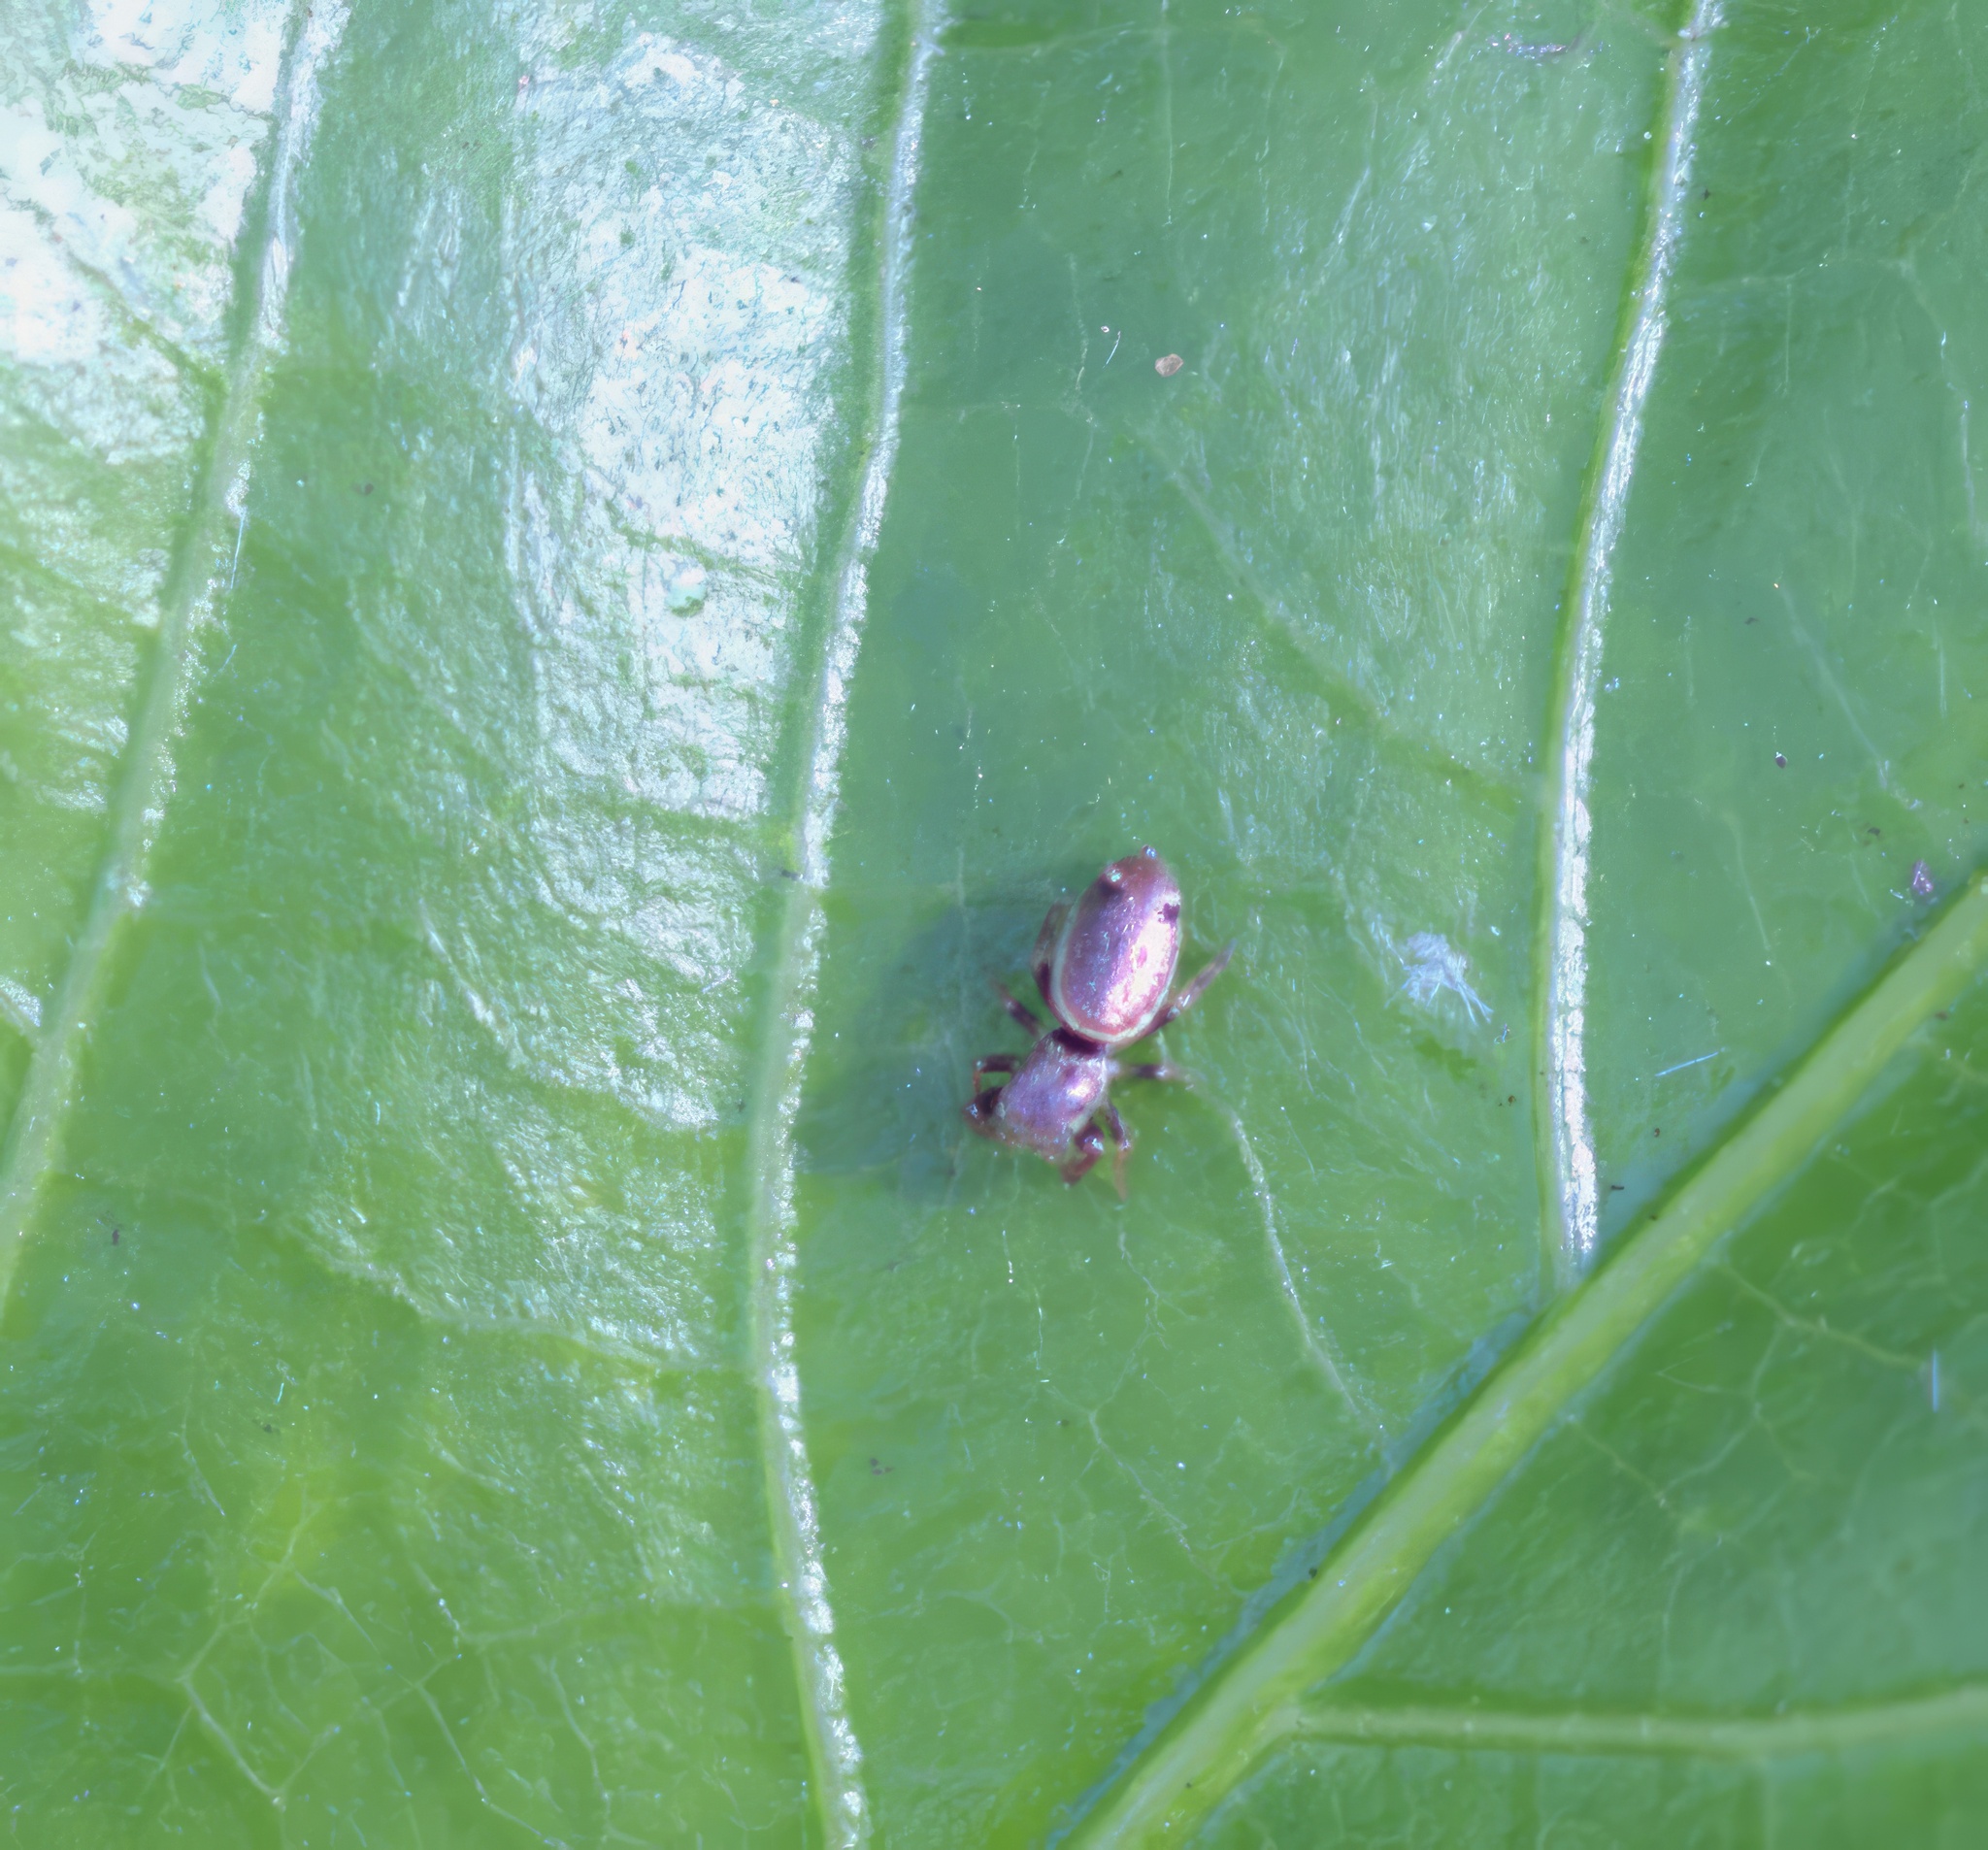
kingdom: Animalia
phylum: Arthropoda
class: Arachnida
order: Araneae
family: Salticidae
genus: Sassacus
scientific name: Sassacus vitis
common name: Jumping spiders
